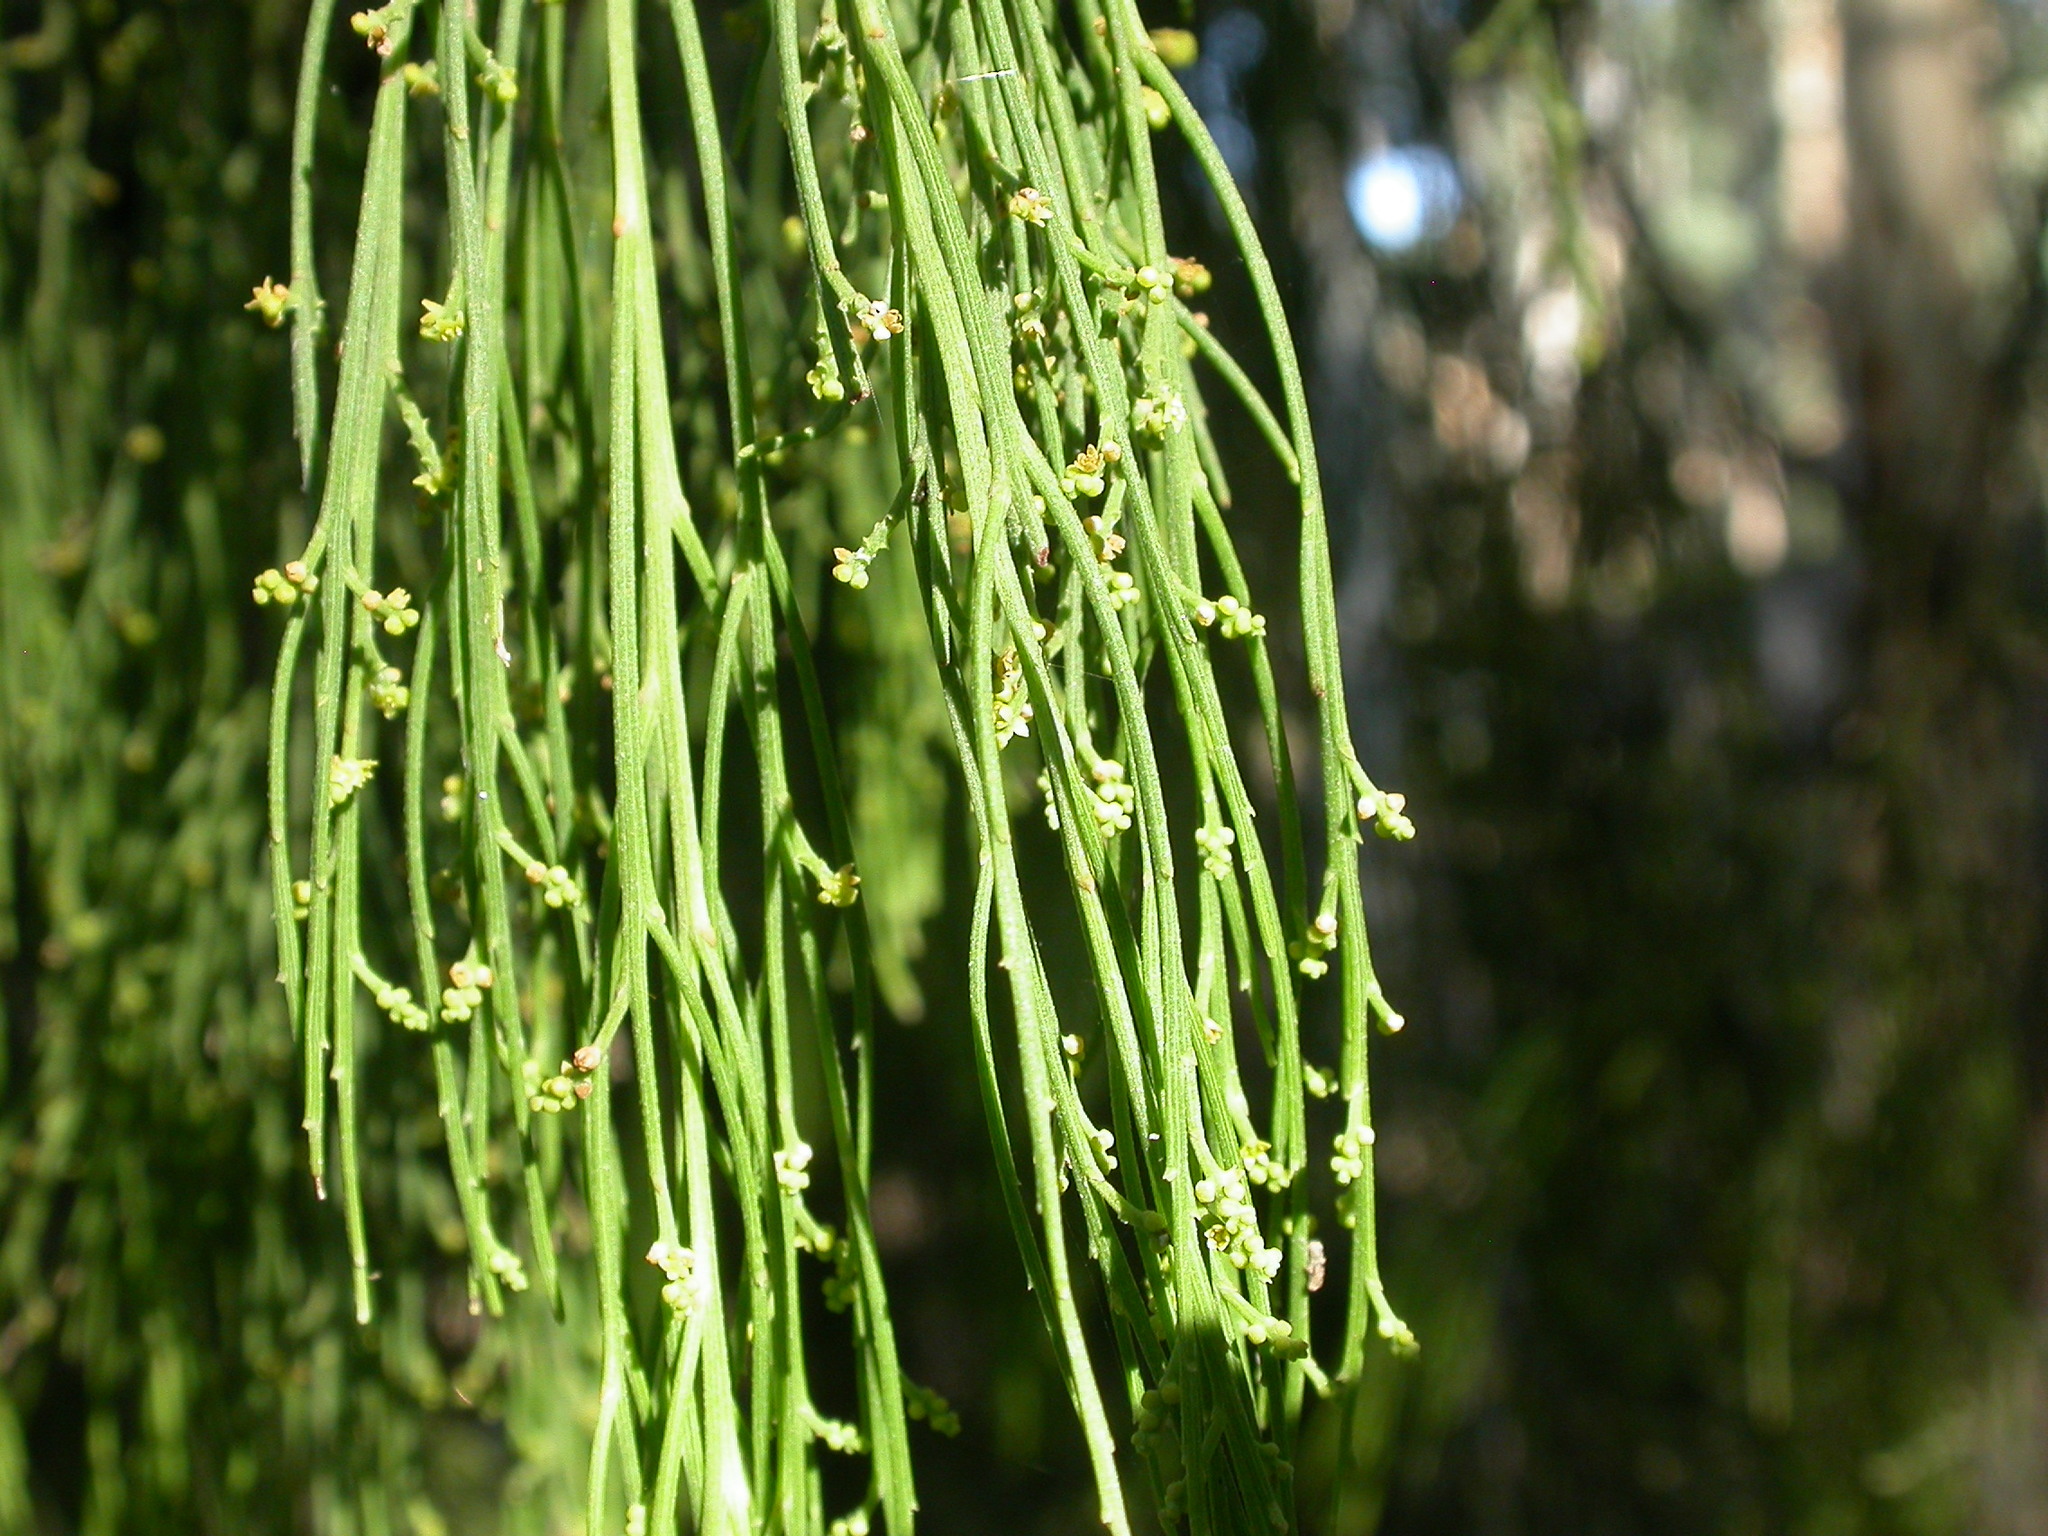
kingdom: Plantae
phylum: Tracheophyta
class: Magnoliopsida
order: Santalales
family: Santalaceae
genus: Exocarpos
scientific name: Exocarpos cupressiformis
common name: Cherry ballart
